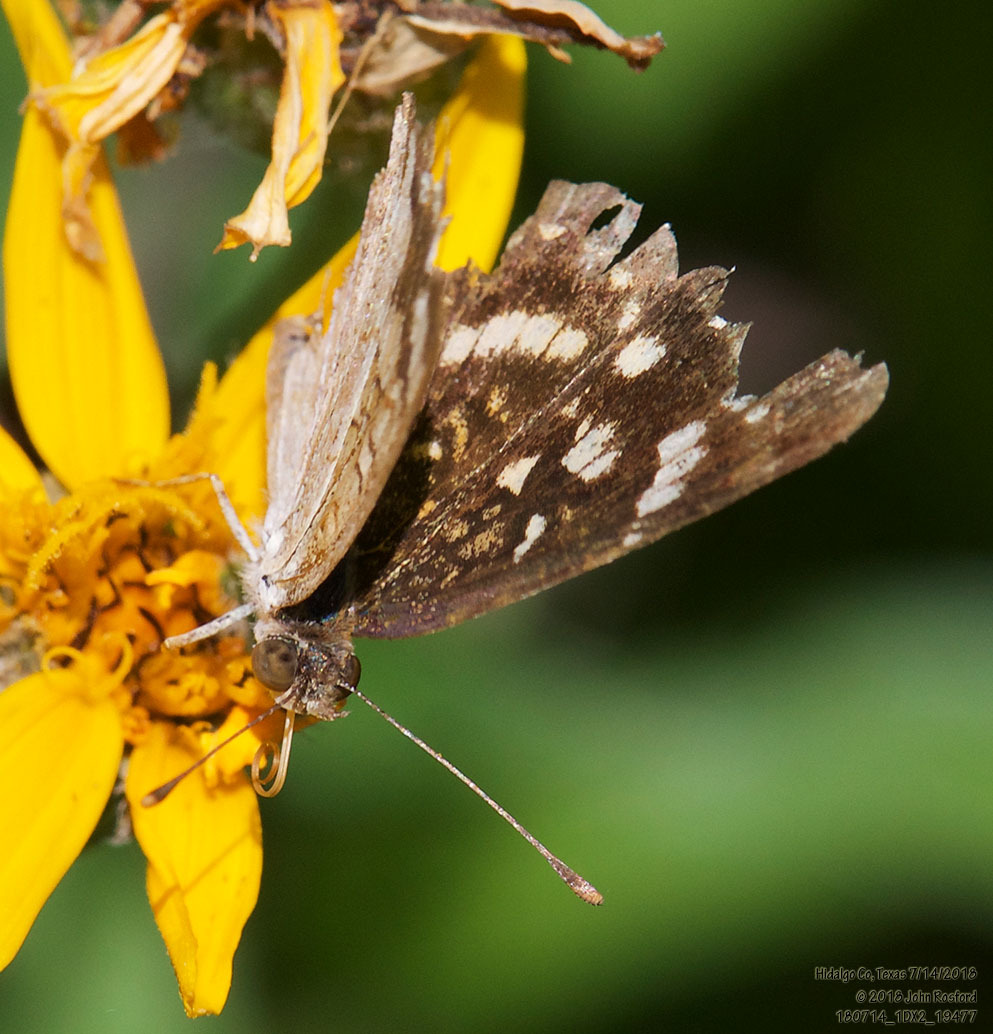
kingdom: Animalia
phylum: Arthropoda
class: Insecta
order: Lepidoptera
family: Nymphalidae
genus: Anthanassa
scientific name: Anthanassa tulcis
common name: Pale-banded crescent
